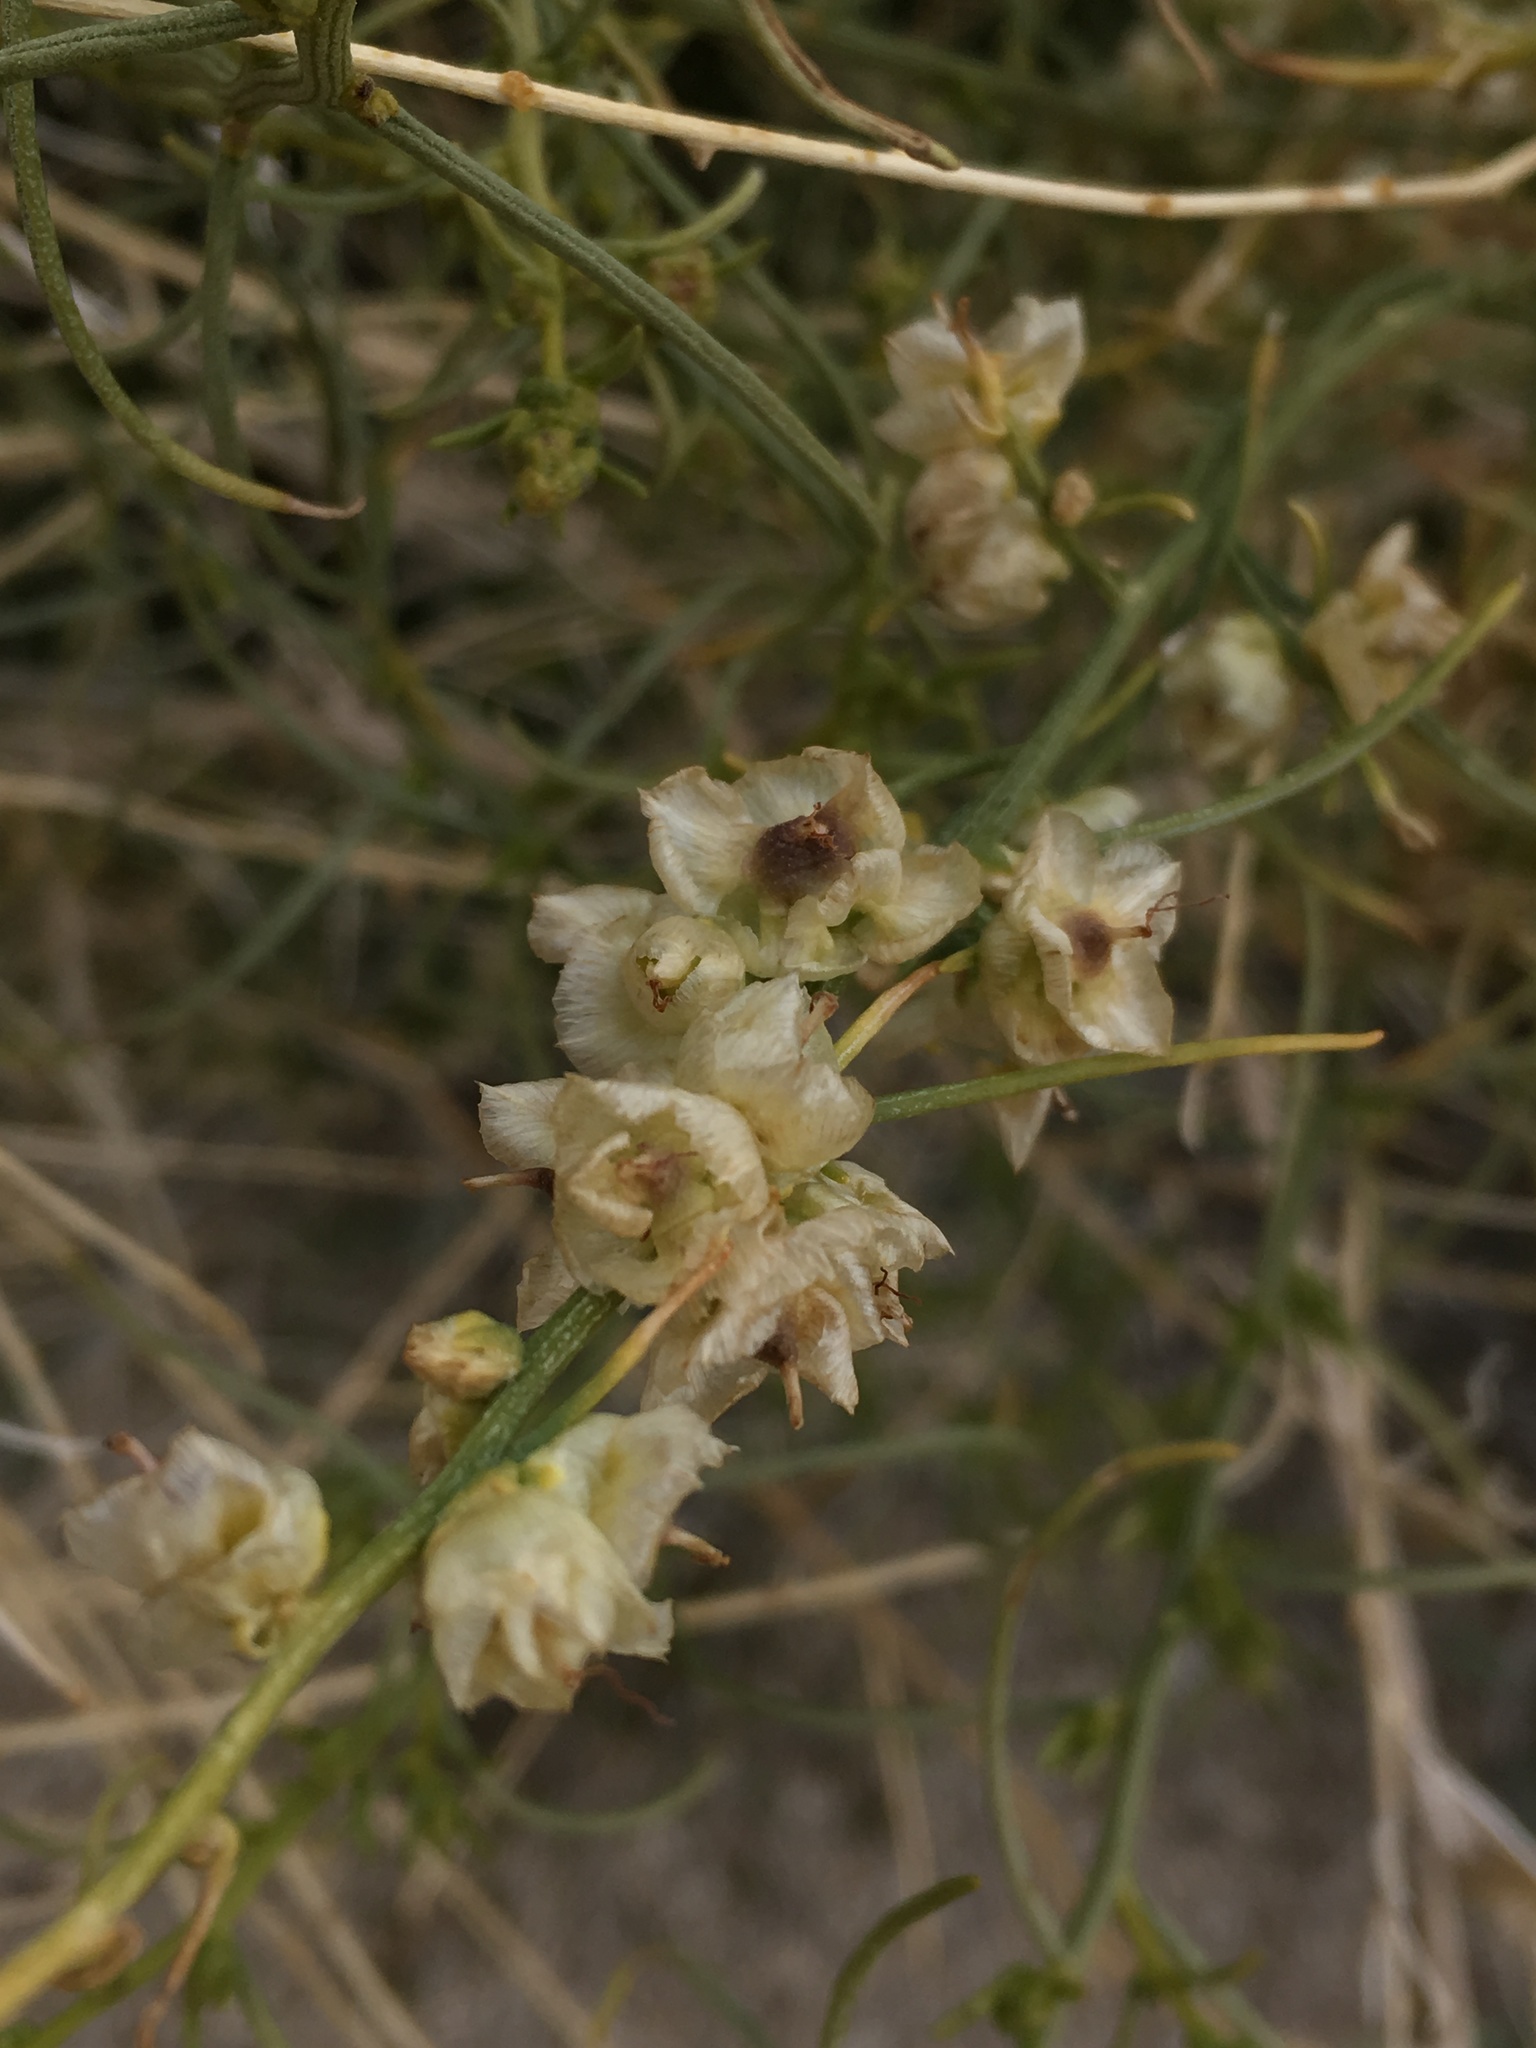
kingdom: Plantae
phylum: Tracheophyta
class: Magnoliopsida
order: Asterales
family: Asteraceae
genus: Ambrosia
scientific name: Ambrosia salsola
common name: Burrobrush
